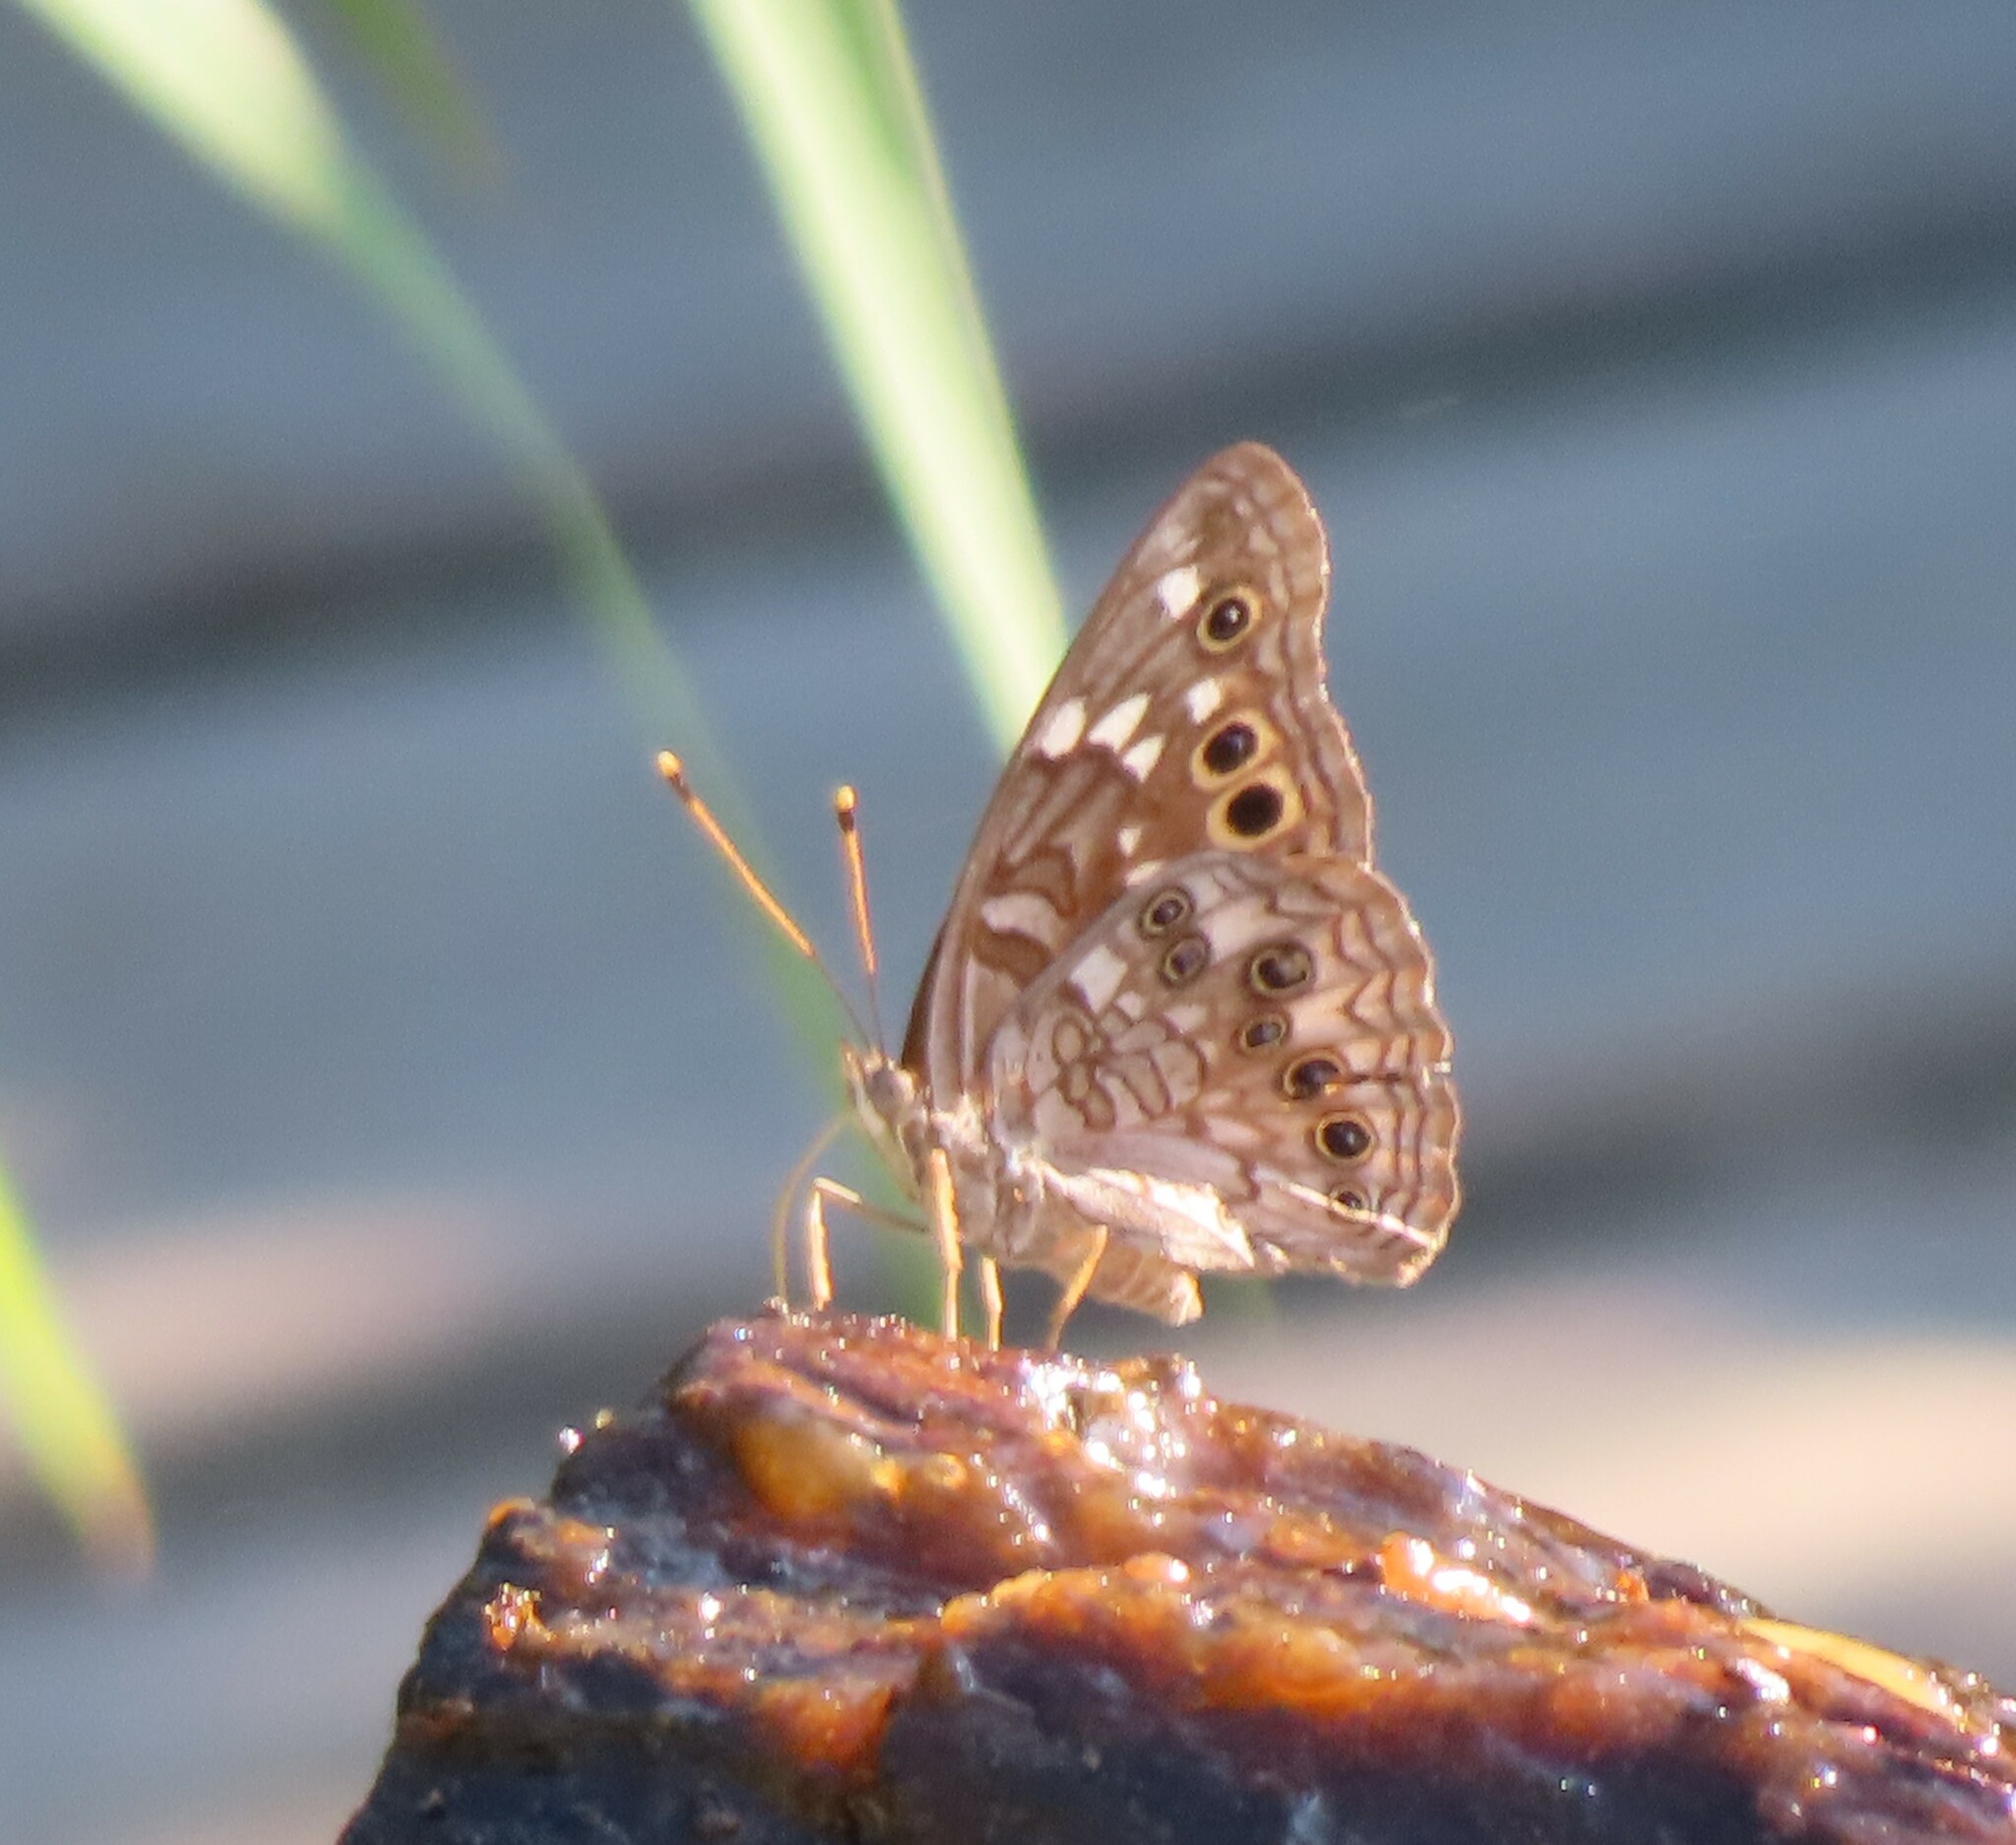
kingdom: Animalia
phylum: Arthropoda
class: Insecta
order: Lepidoptera
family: Nymphalidae
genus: Asterocampa
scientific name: Asterocampa leilia
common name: Empress leilia
